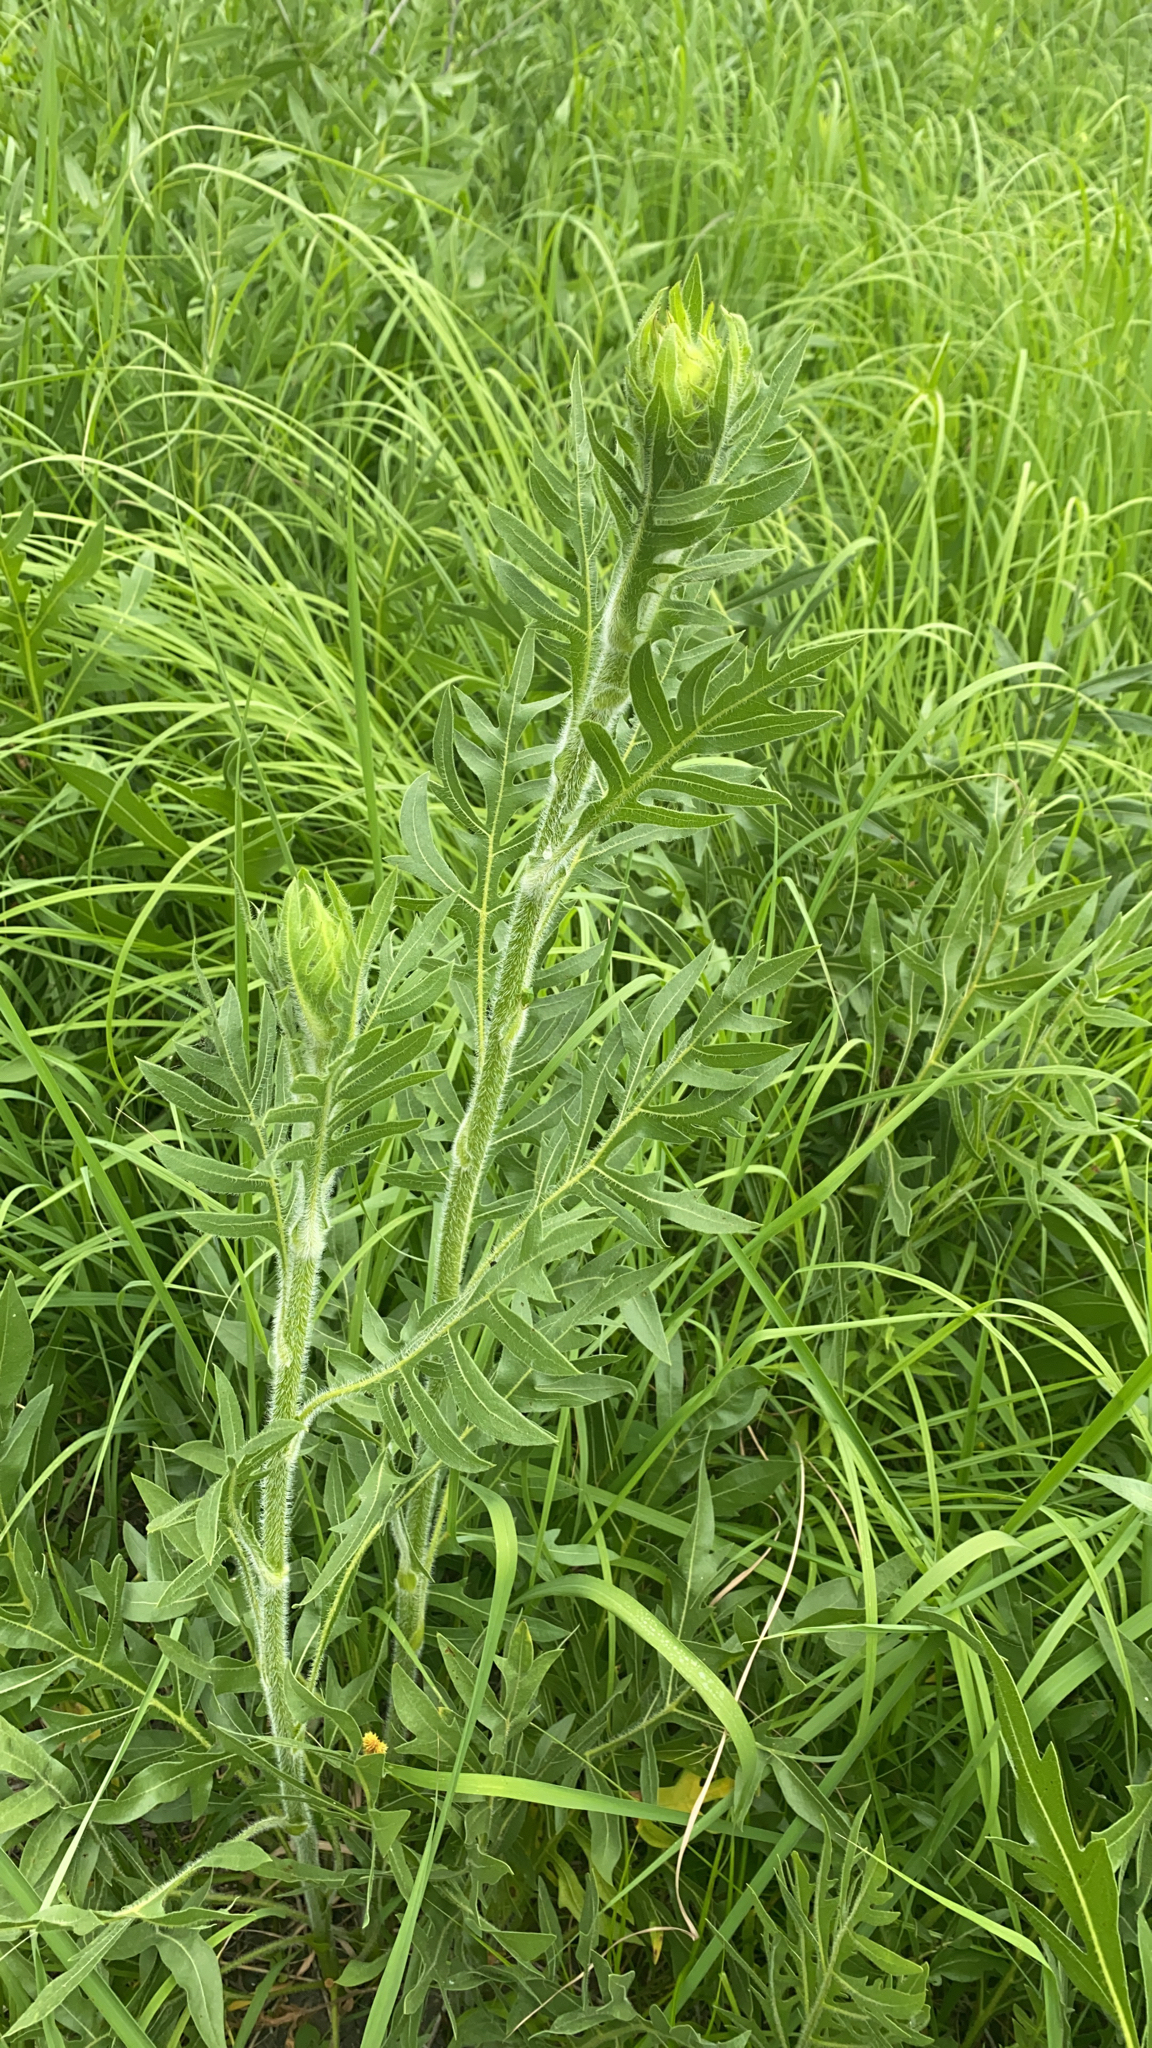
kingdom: Plantae
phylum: Tracheophyta
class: Magnoliopsida
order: Asterales
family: Asteraceae
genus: Silphium
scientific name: Silphium laciniatum
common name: Polarplant
